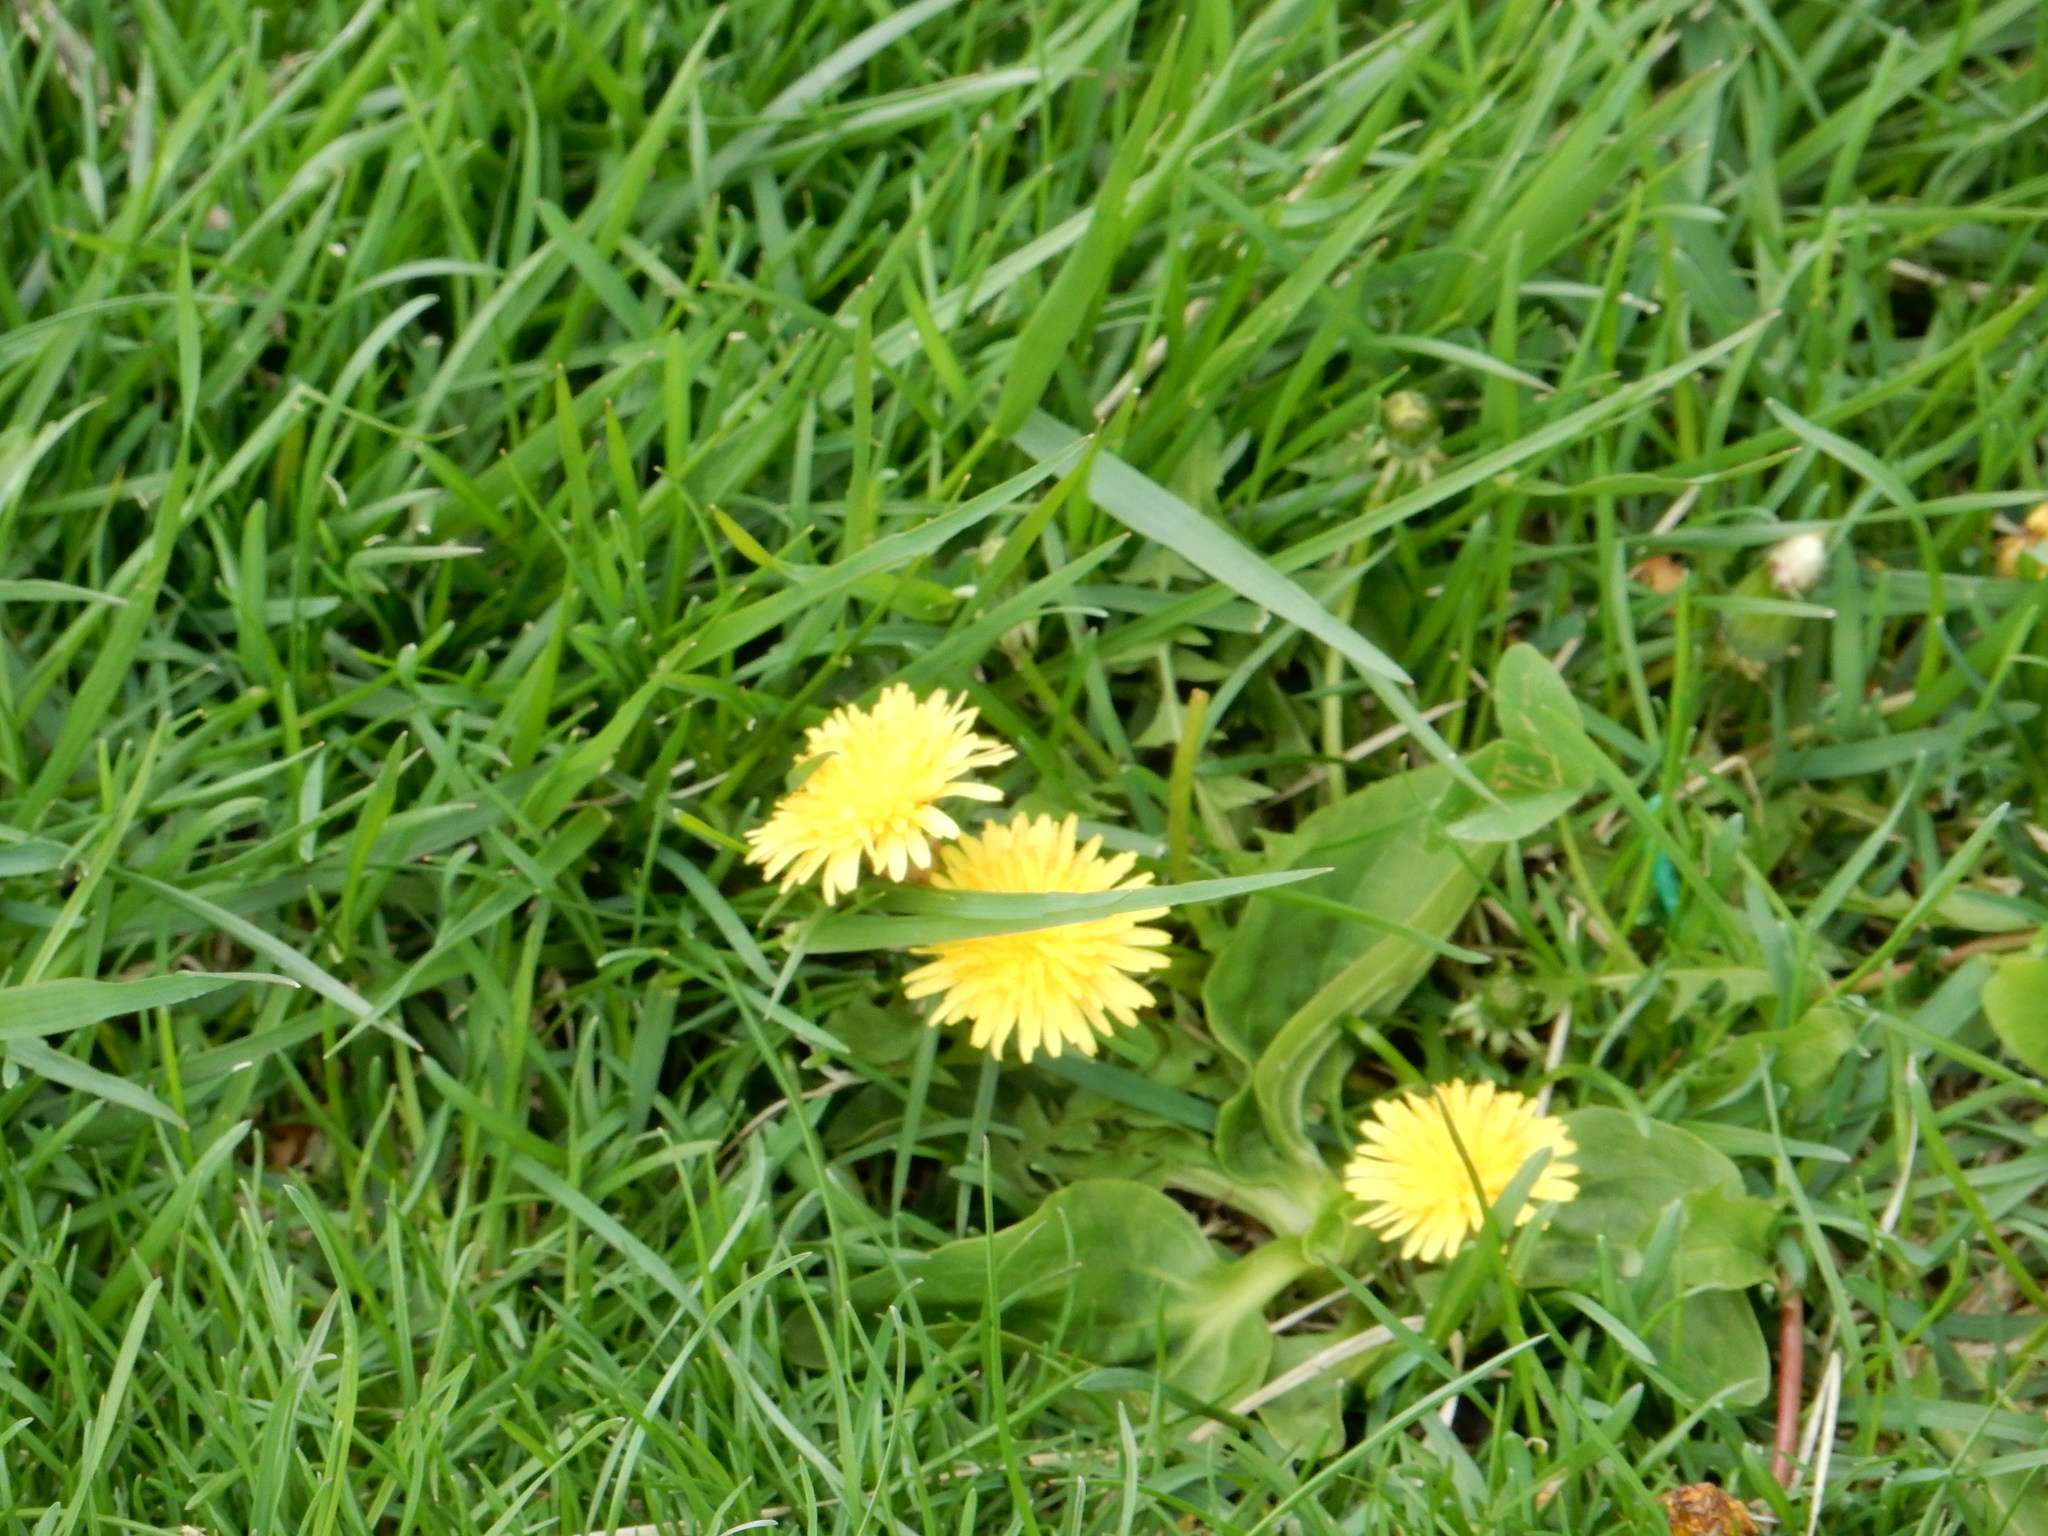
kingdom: Plantae
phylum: Tracheophyta
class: Magnoliopsida
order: Asterales
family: Asteraceae
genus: Taraxacum
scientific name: Taraxacum
